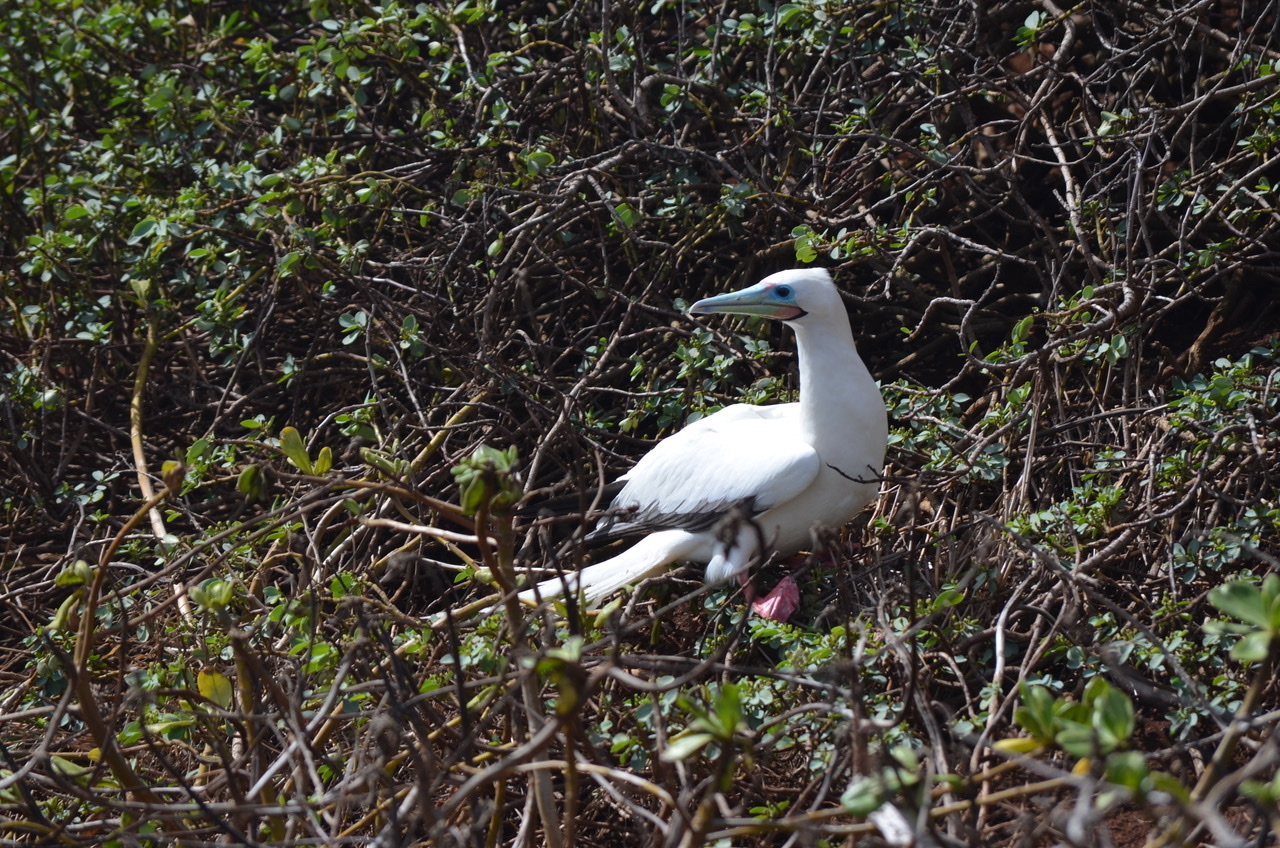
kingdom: Animalia
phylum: Chordata
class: Aves
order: Suliformes
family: Sulidae
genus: Sula
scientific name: Sula sula
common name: Red-footed booby
